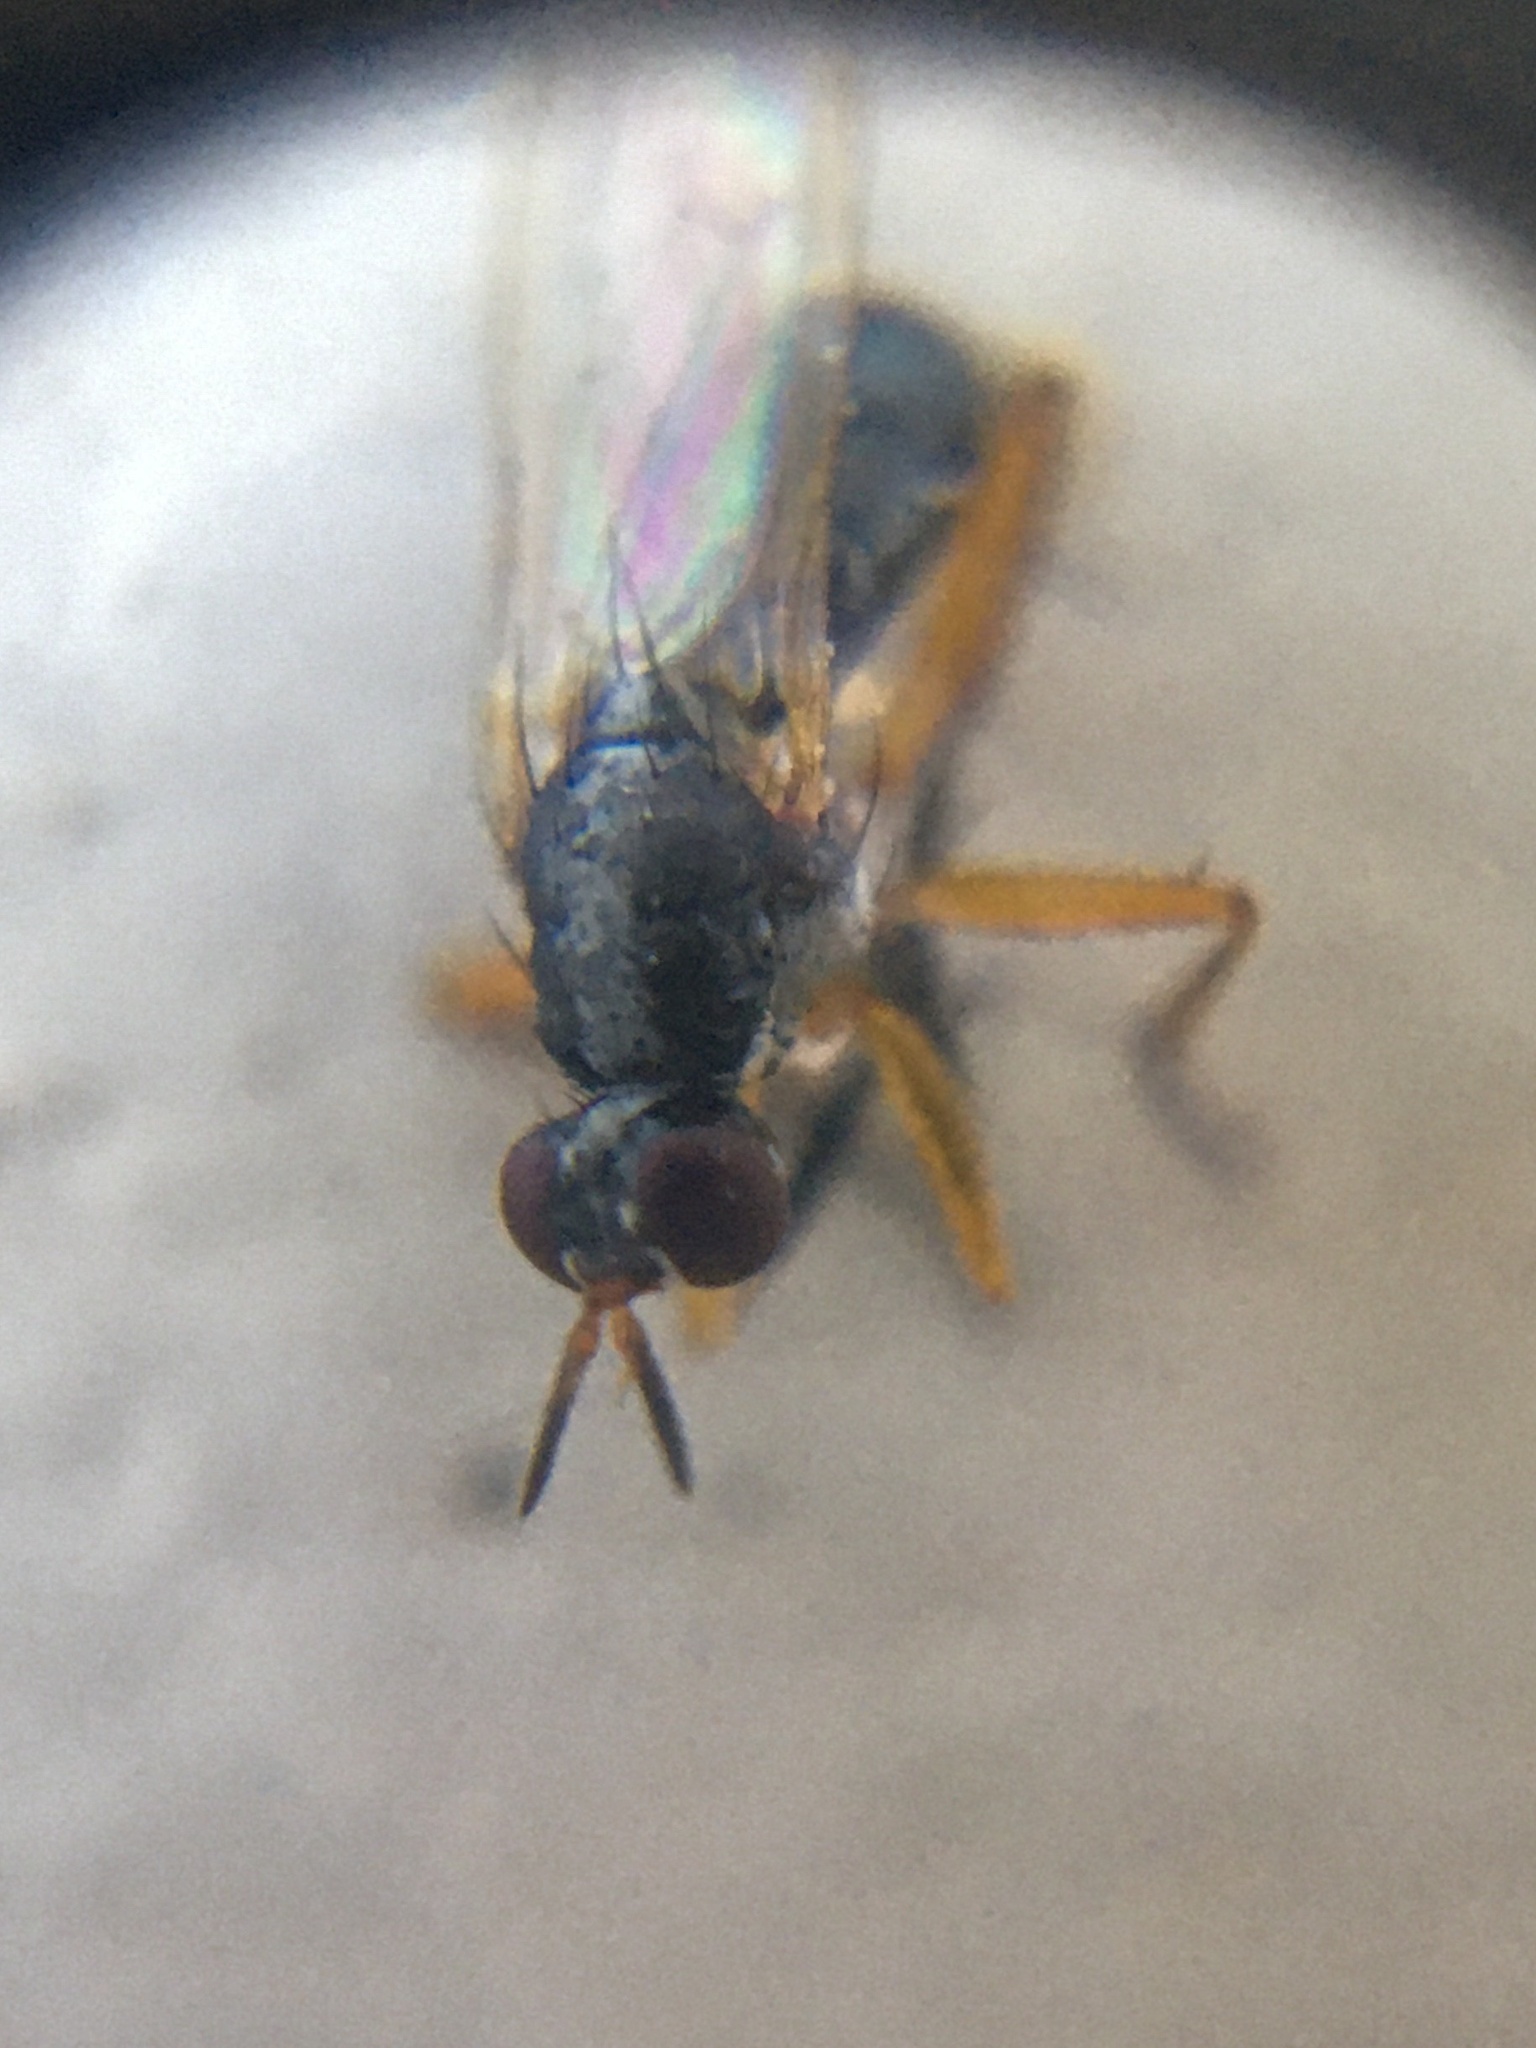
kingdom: Animalia
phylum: Arthropoda
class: Insecta
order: Diptera
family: Muscidae
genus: Anaphalantus
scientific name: Anaphalantus longicornis
